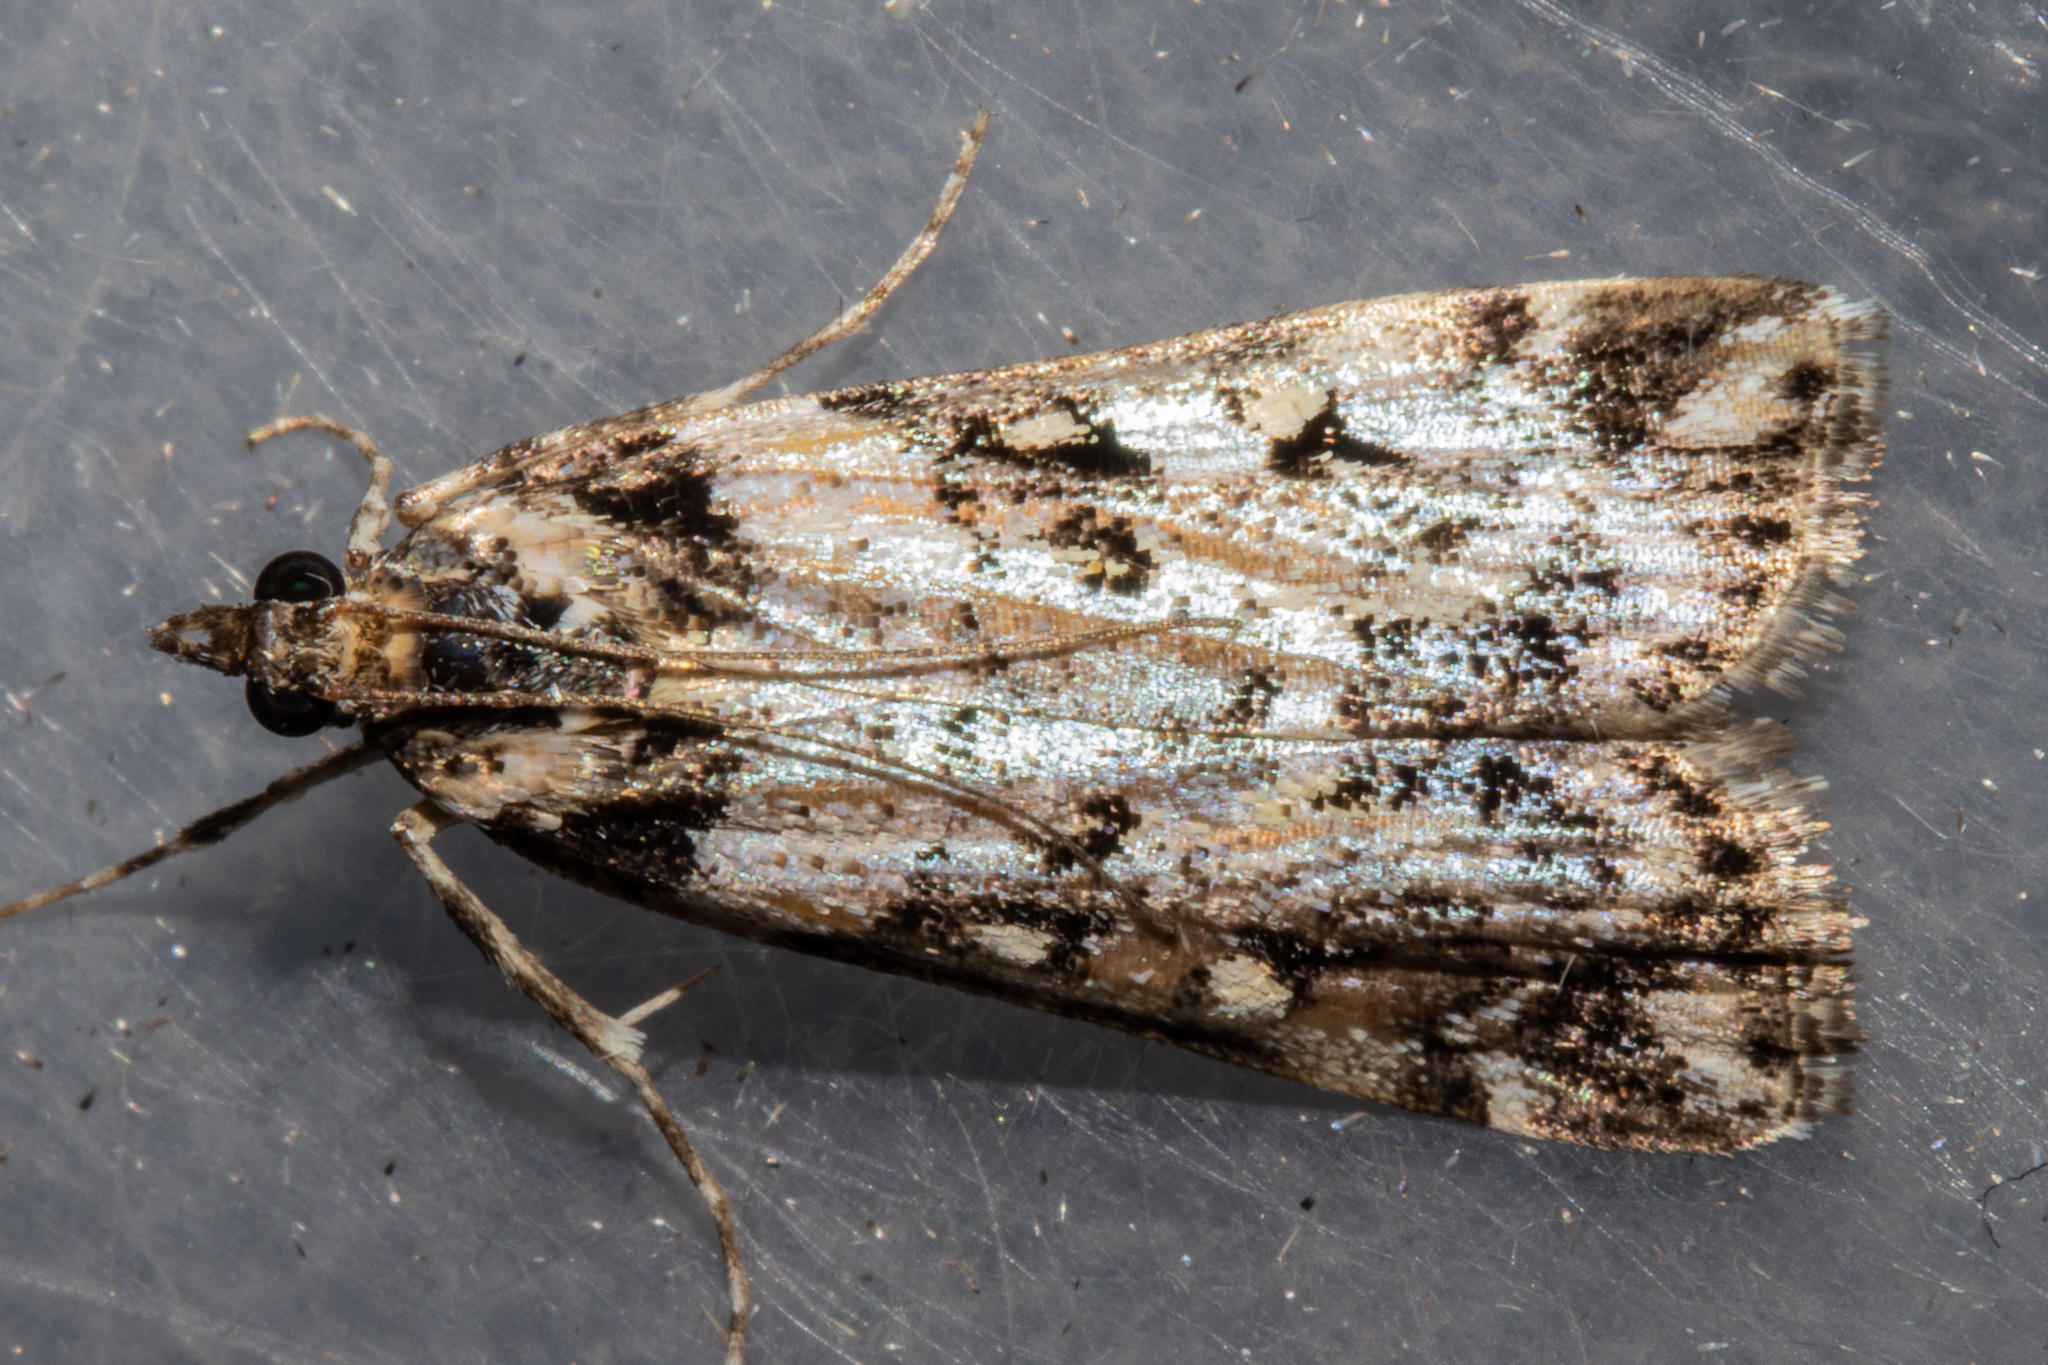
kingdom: Animalia
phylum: Arthropoda
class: Insecta
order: Lepidoptera
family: Crambidae
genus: Eudonia
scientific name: Eudonia diphtheralis
